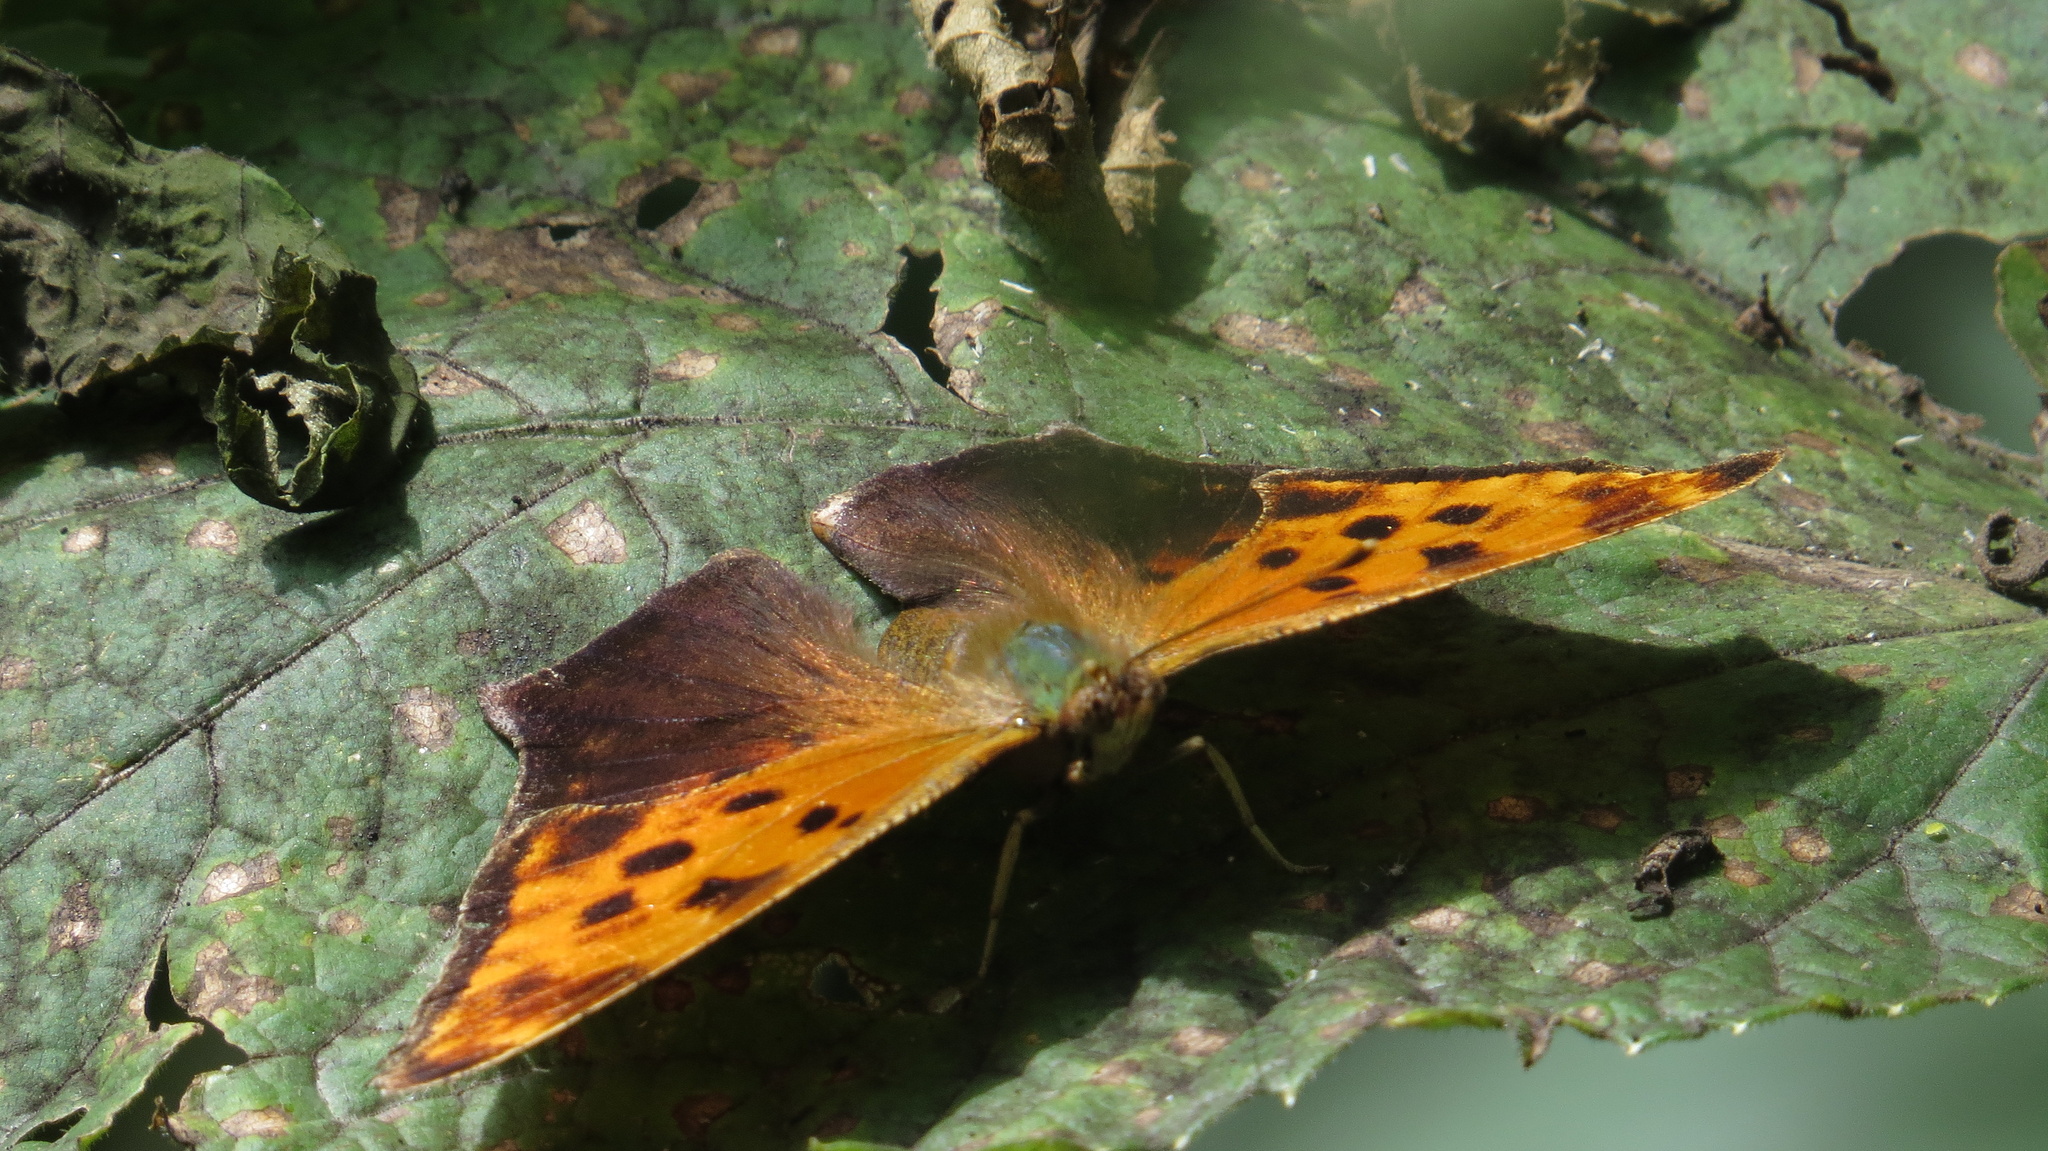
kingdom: Animalia
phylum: Arthropoda
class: Insecta
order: Lepidoptera
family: Nymphalidae
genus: Polygonia
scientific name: Polygonia comma
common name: Eastern comma
